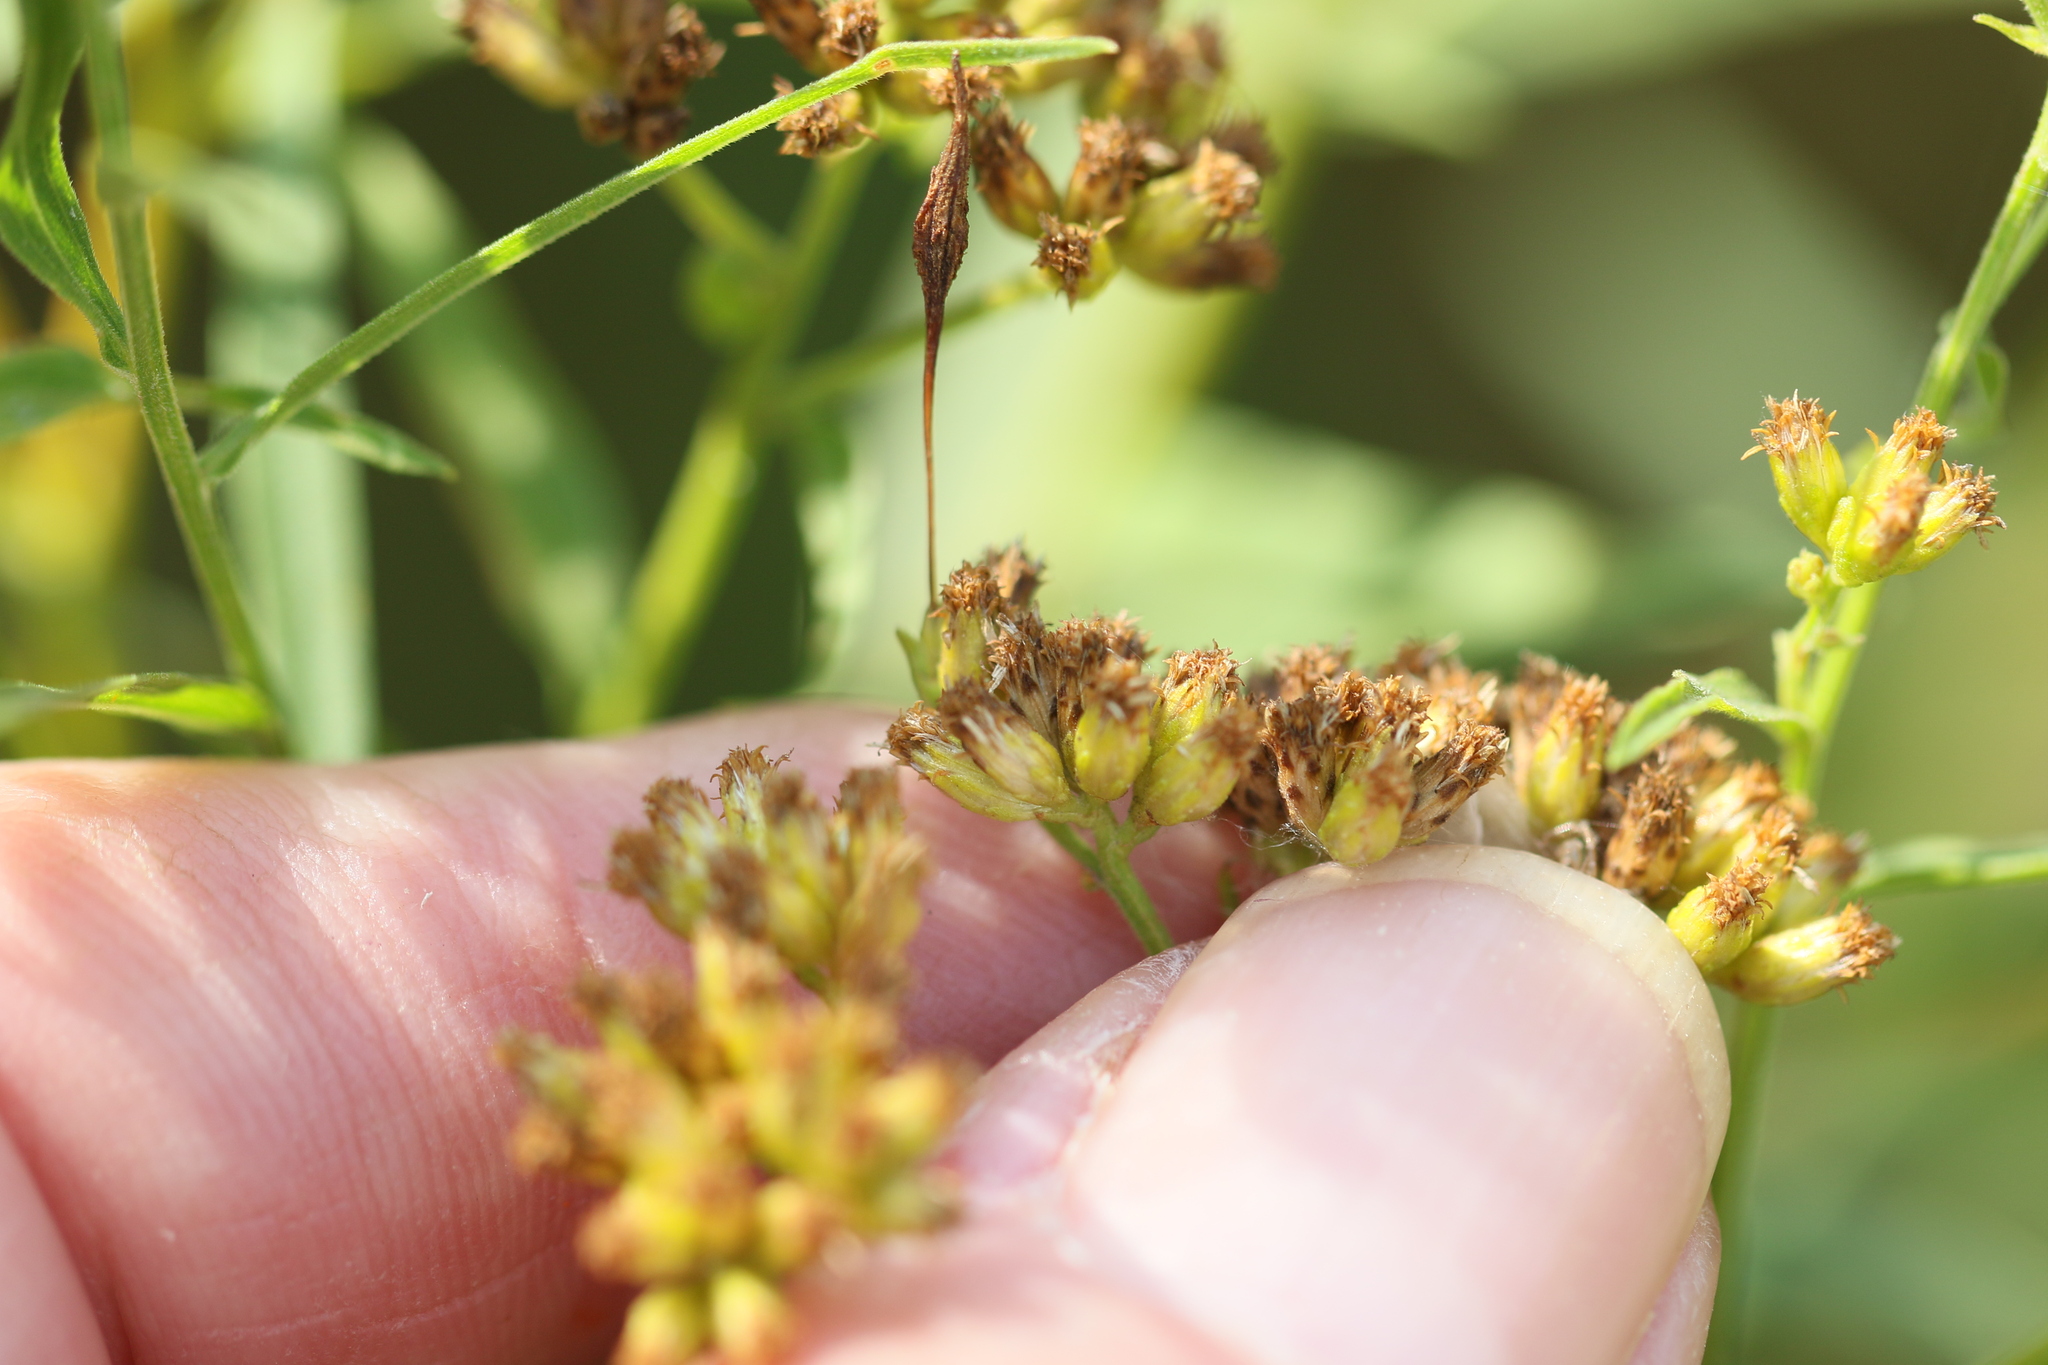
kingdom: Animalia
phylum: Arthropoda
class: Insecta
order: Diptera
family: Cecidomyiidae
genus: Rhopalomyia
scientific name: Rhopalomyia pedicellata
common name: Goldentop pedicellate gall midge
